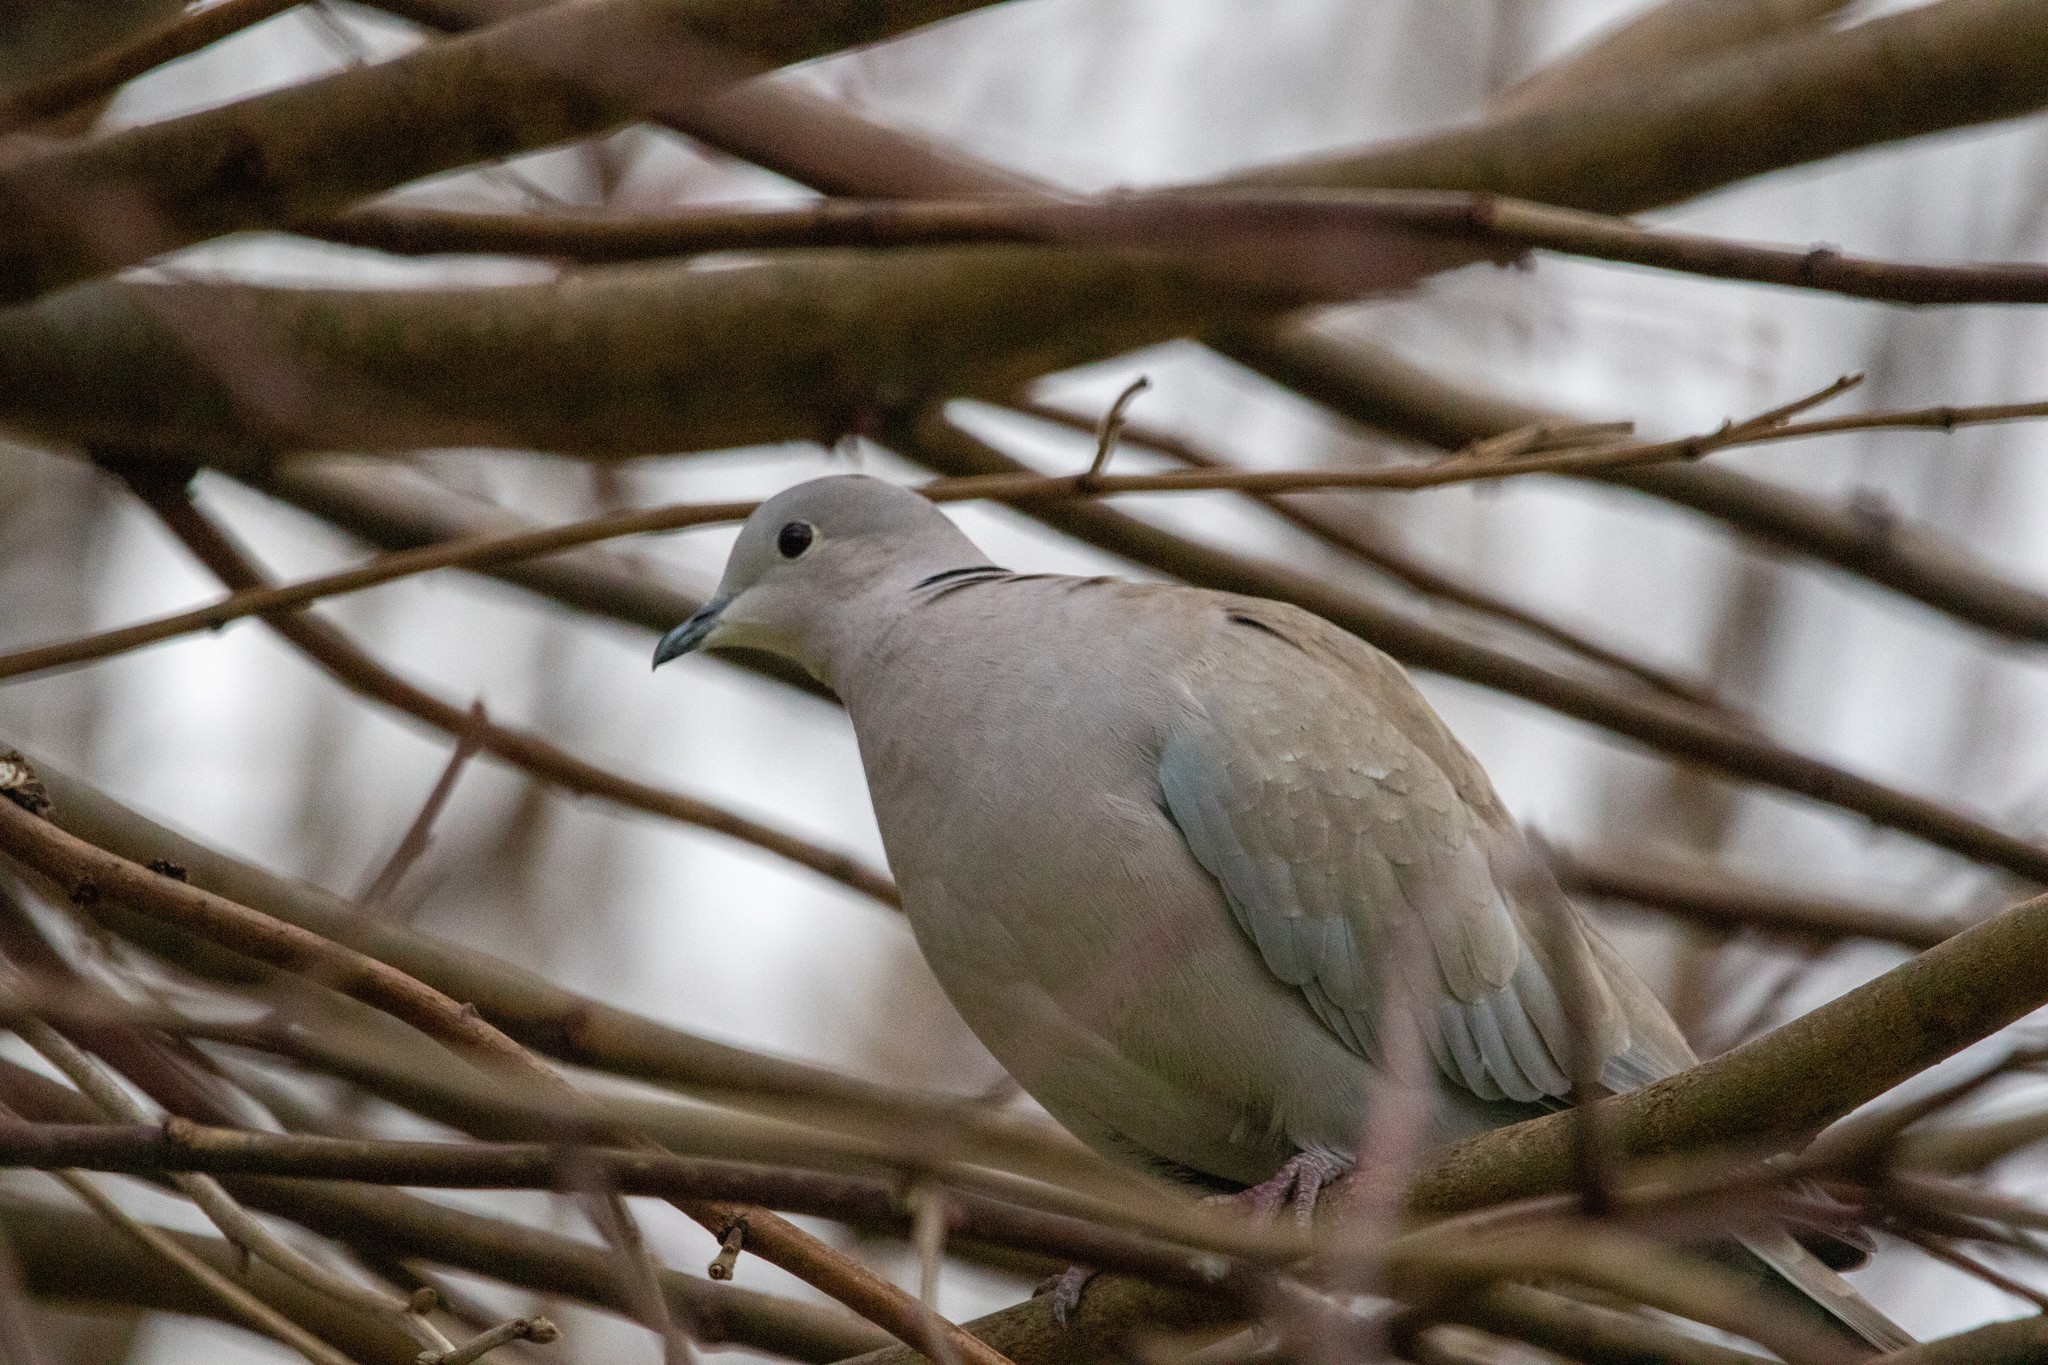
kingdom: Animalia
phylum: Chordata
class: Aves
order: Columbiformes
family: Columbidae
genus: Streptopelia
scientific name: Streptopelia decaocto
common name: Eurasian collared dove
